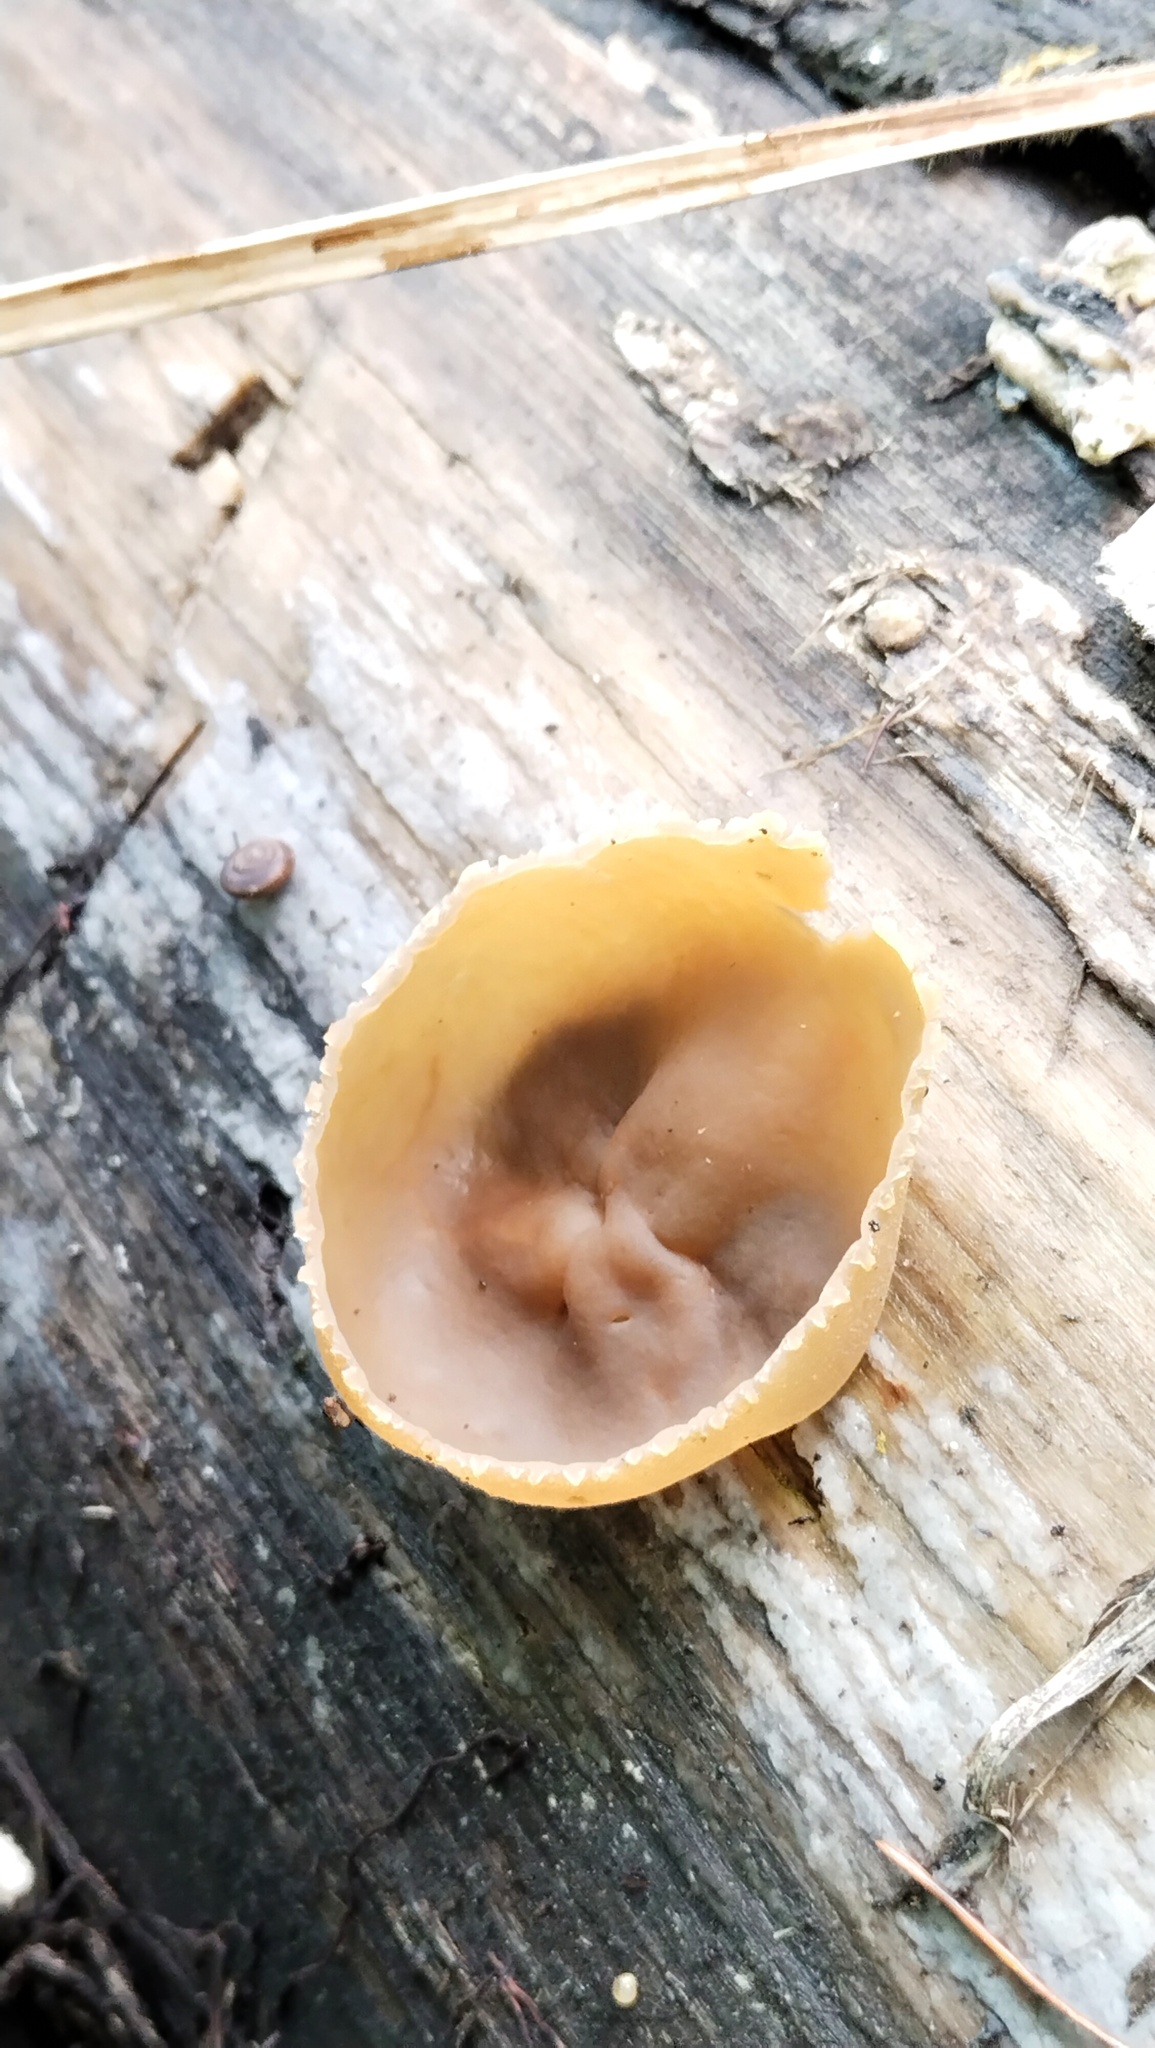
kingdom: Fungi
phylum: Ascomycota
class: Pezizomycetes
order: Pezizales
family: Pezizaceae
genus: Peziza
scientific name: Peziza varia
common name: Layered cup
